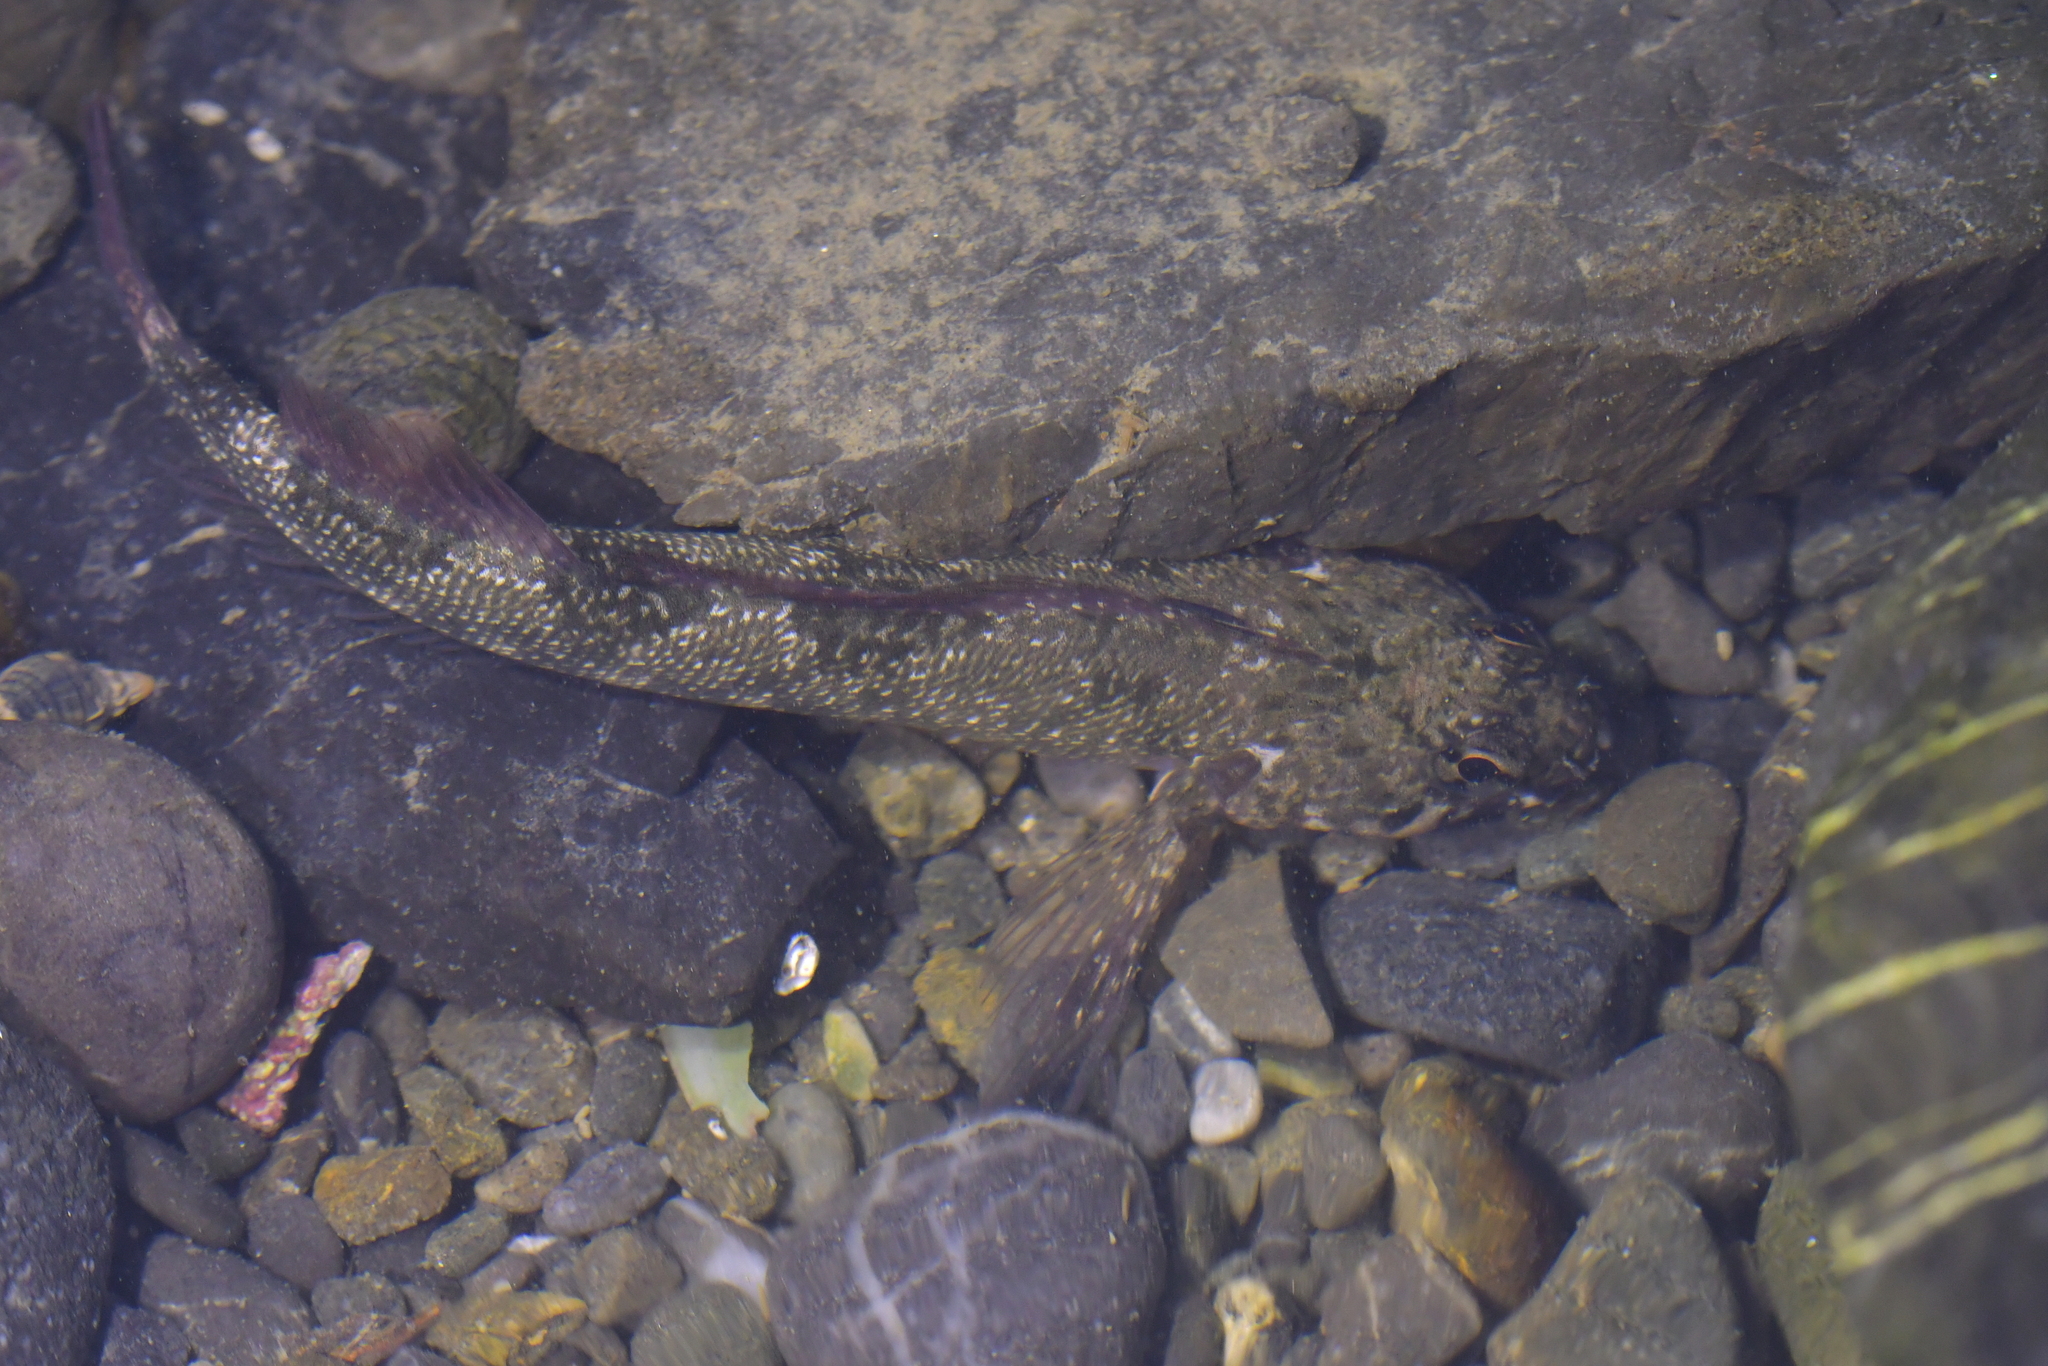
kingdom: Animalia
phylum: Chordata
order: Perciformes
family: Tripterygiidae
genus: Bellapiscis
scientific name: Bellapiscis medius
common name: Twister
